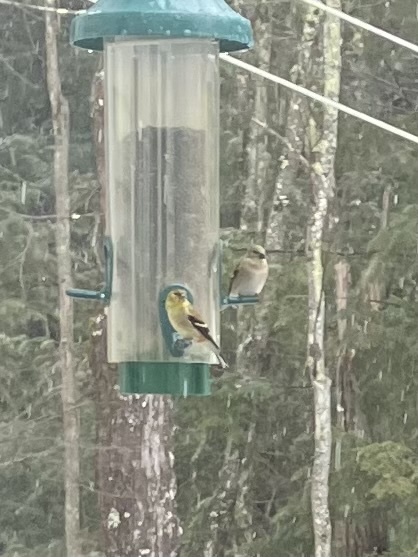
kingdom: Animalia
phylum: Chordata
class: Aves
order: Passeriformes
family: Fringillidae
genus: Spinus
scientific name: Spinus tristis
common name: American goldfinch
